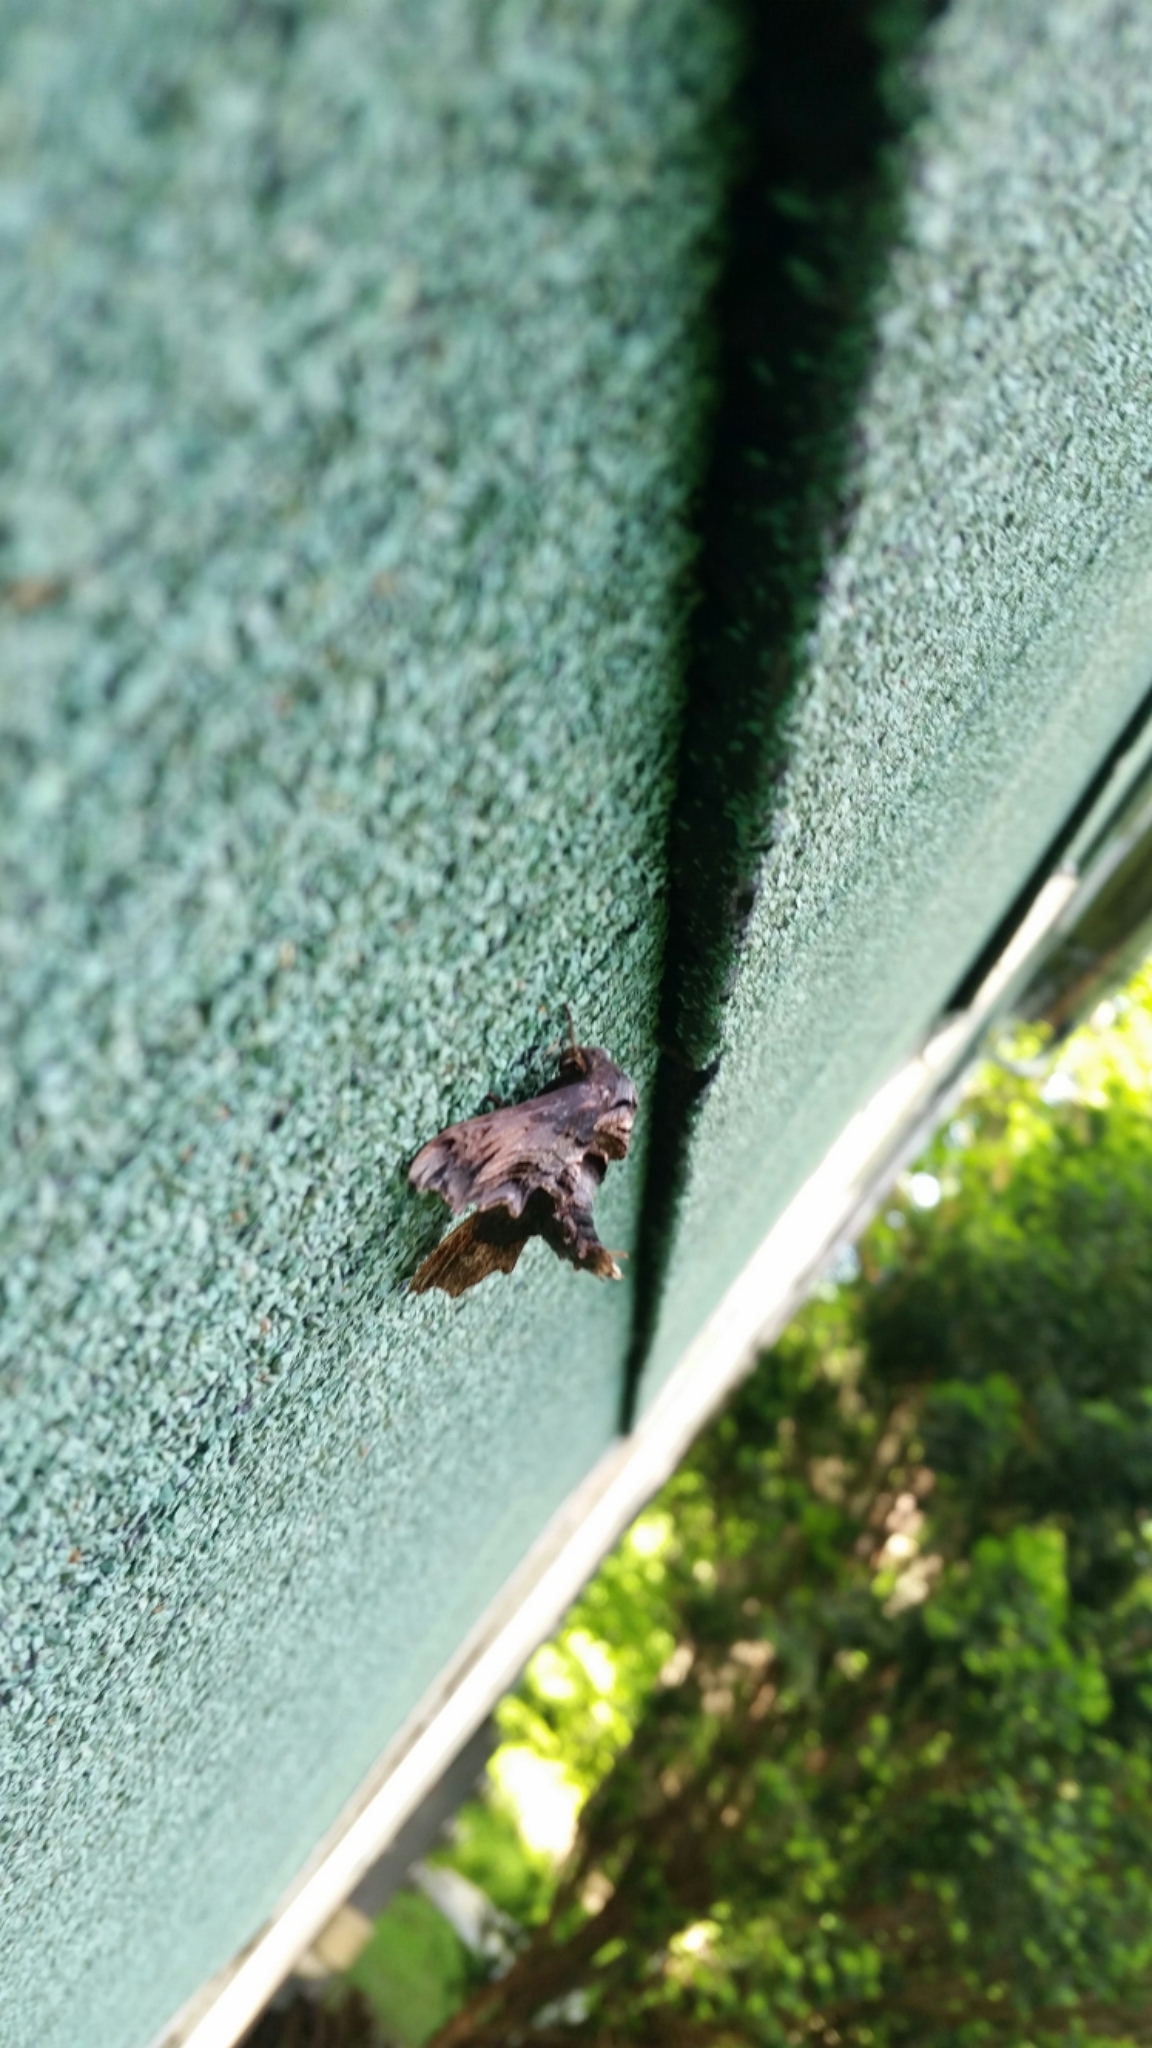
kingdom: Animalia
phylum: Arthropoda
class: Insecta
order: Lepidoptera
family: Sphingidae
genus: Sphecodina
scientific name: Sphecodina abbottii
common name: Abbott's sphinx
